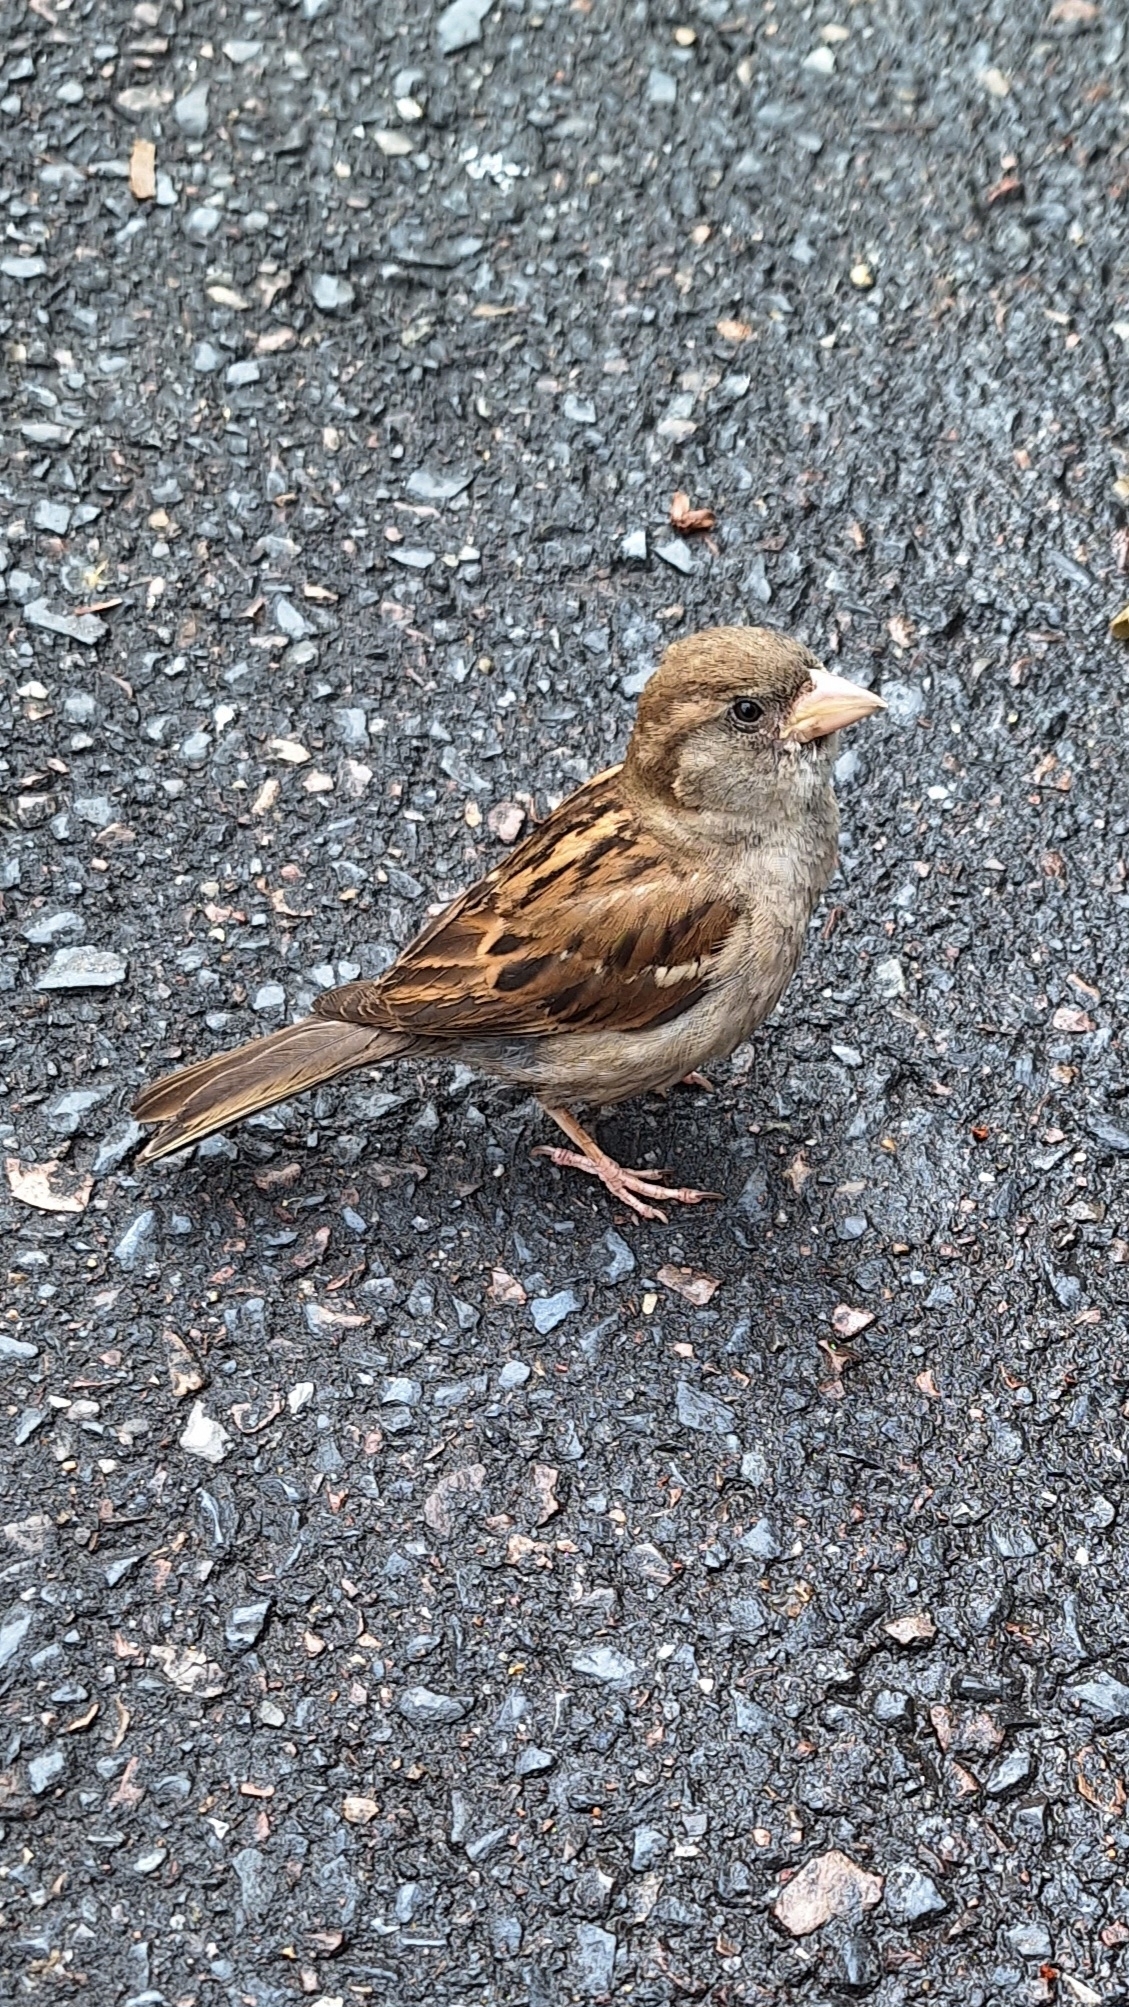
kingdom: Animalia
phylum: Chordata
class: Aves
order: Passeriformes
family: Passeridae
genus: Passer
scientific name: Passer domesticus
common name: House sparrow
